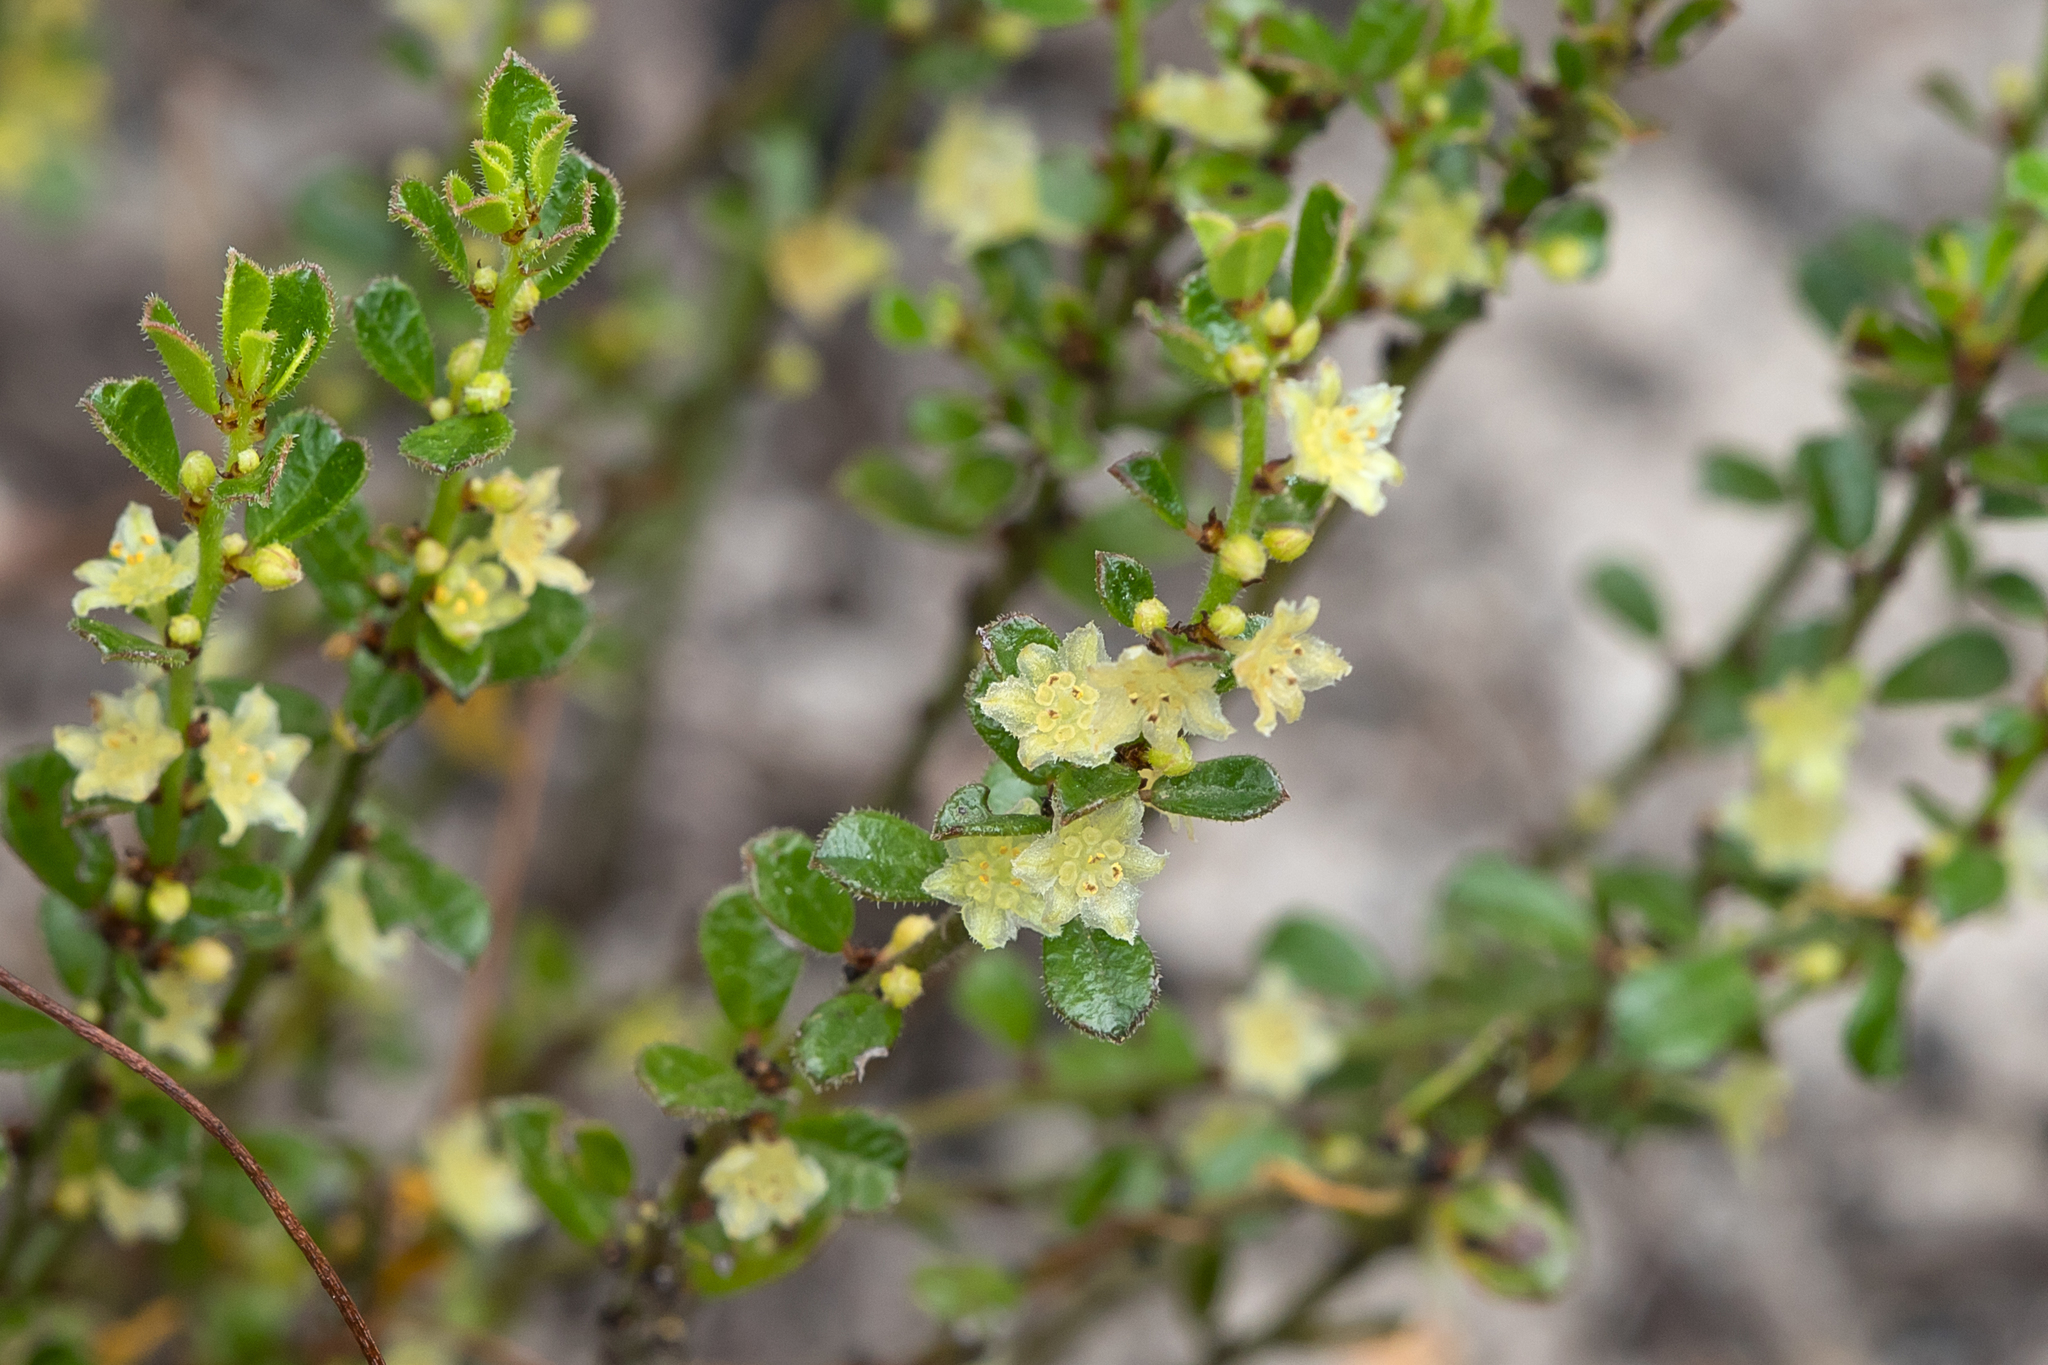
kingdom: Plantae
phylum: Tracheophyta
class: Magnoliopsida
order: Malpighiales
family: Phyllanthaceae
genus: Phyllanthus
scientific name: Phyllanthus hirtellus
